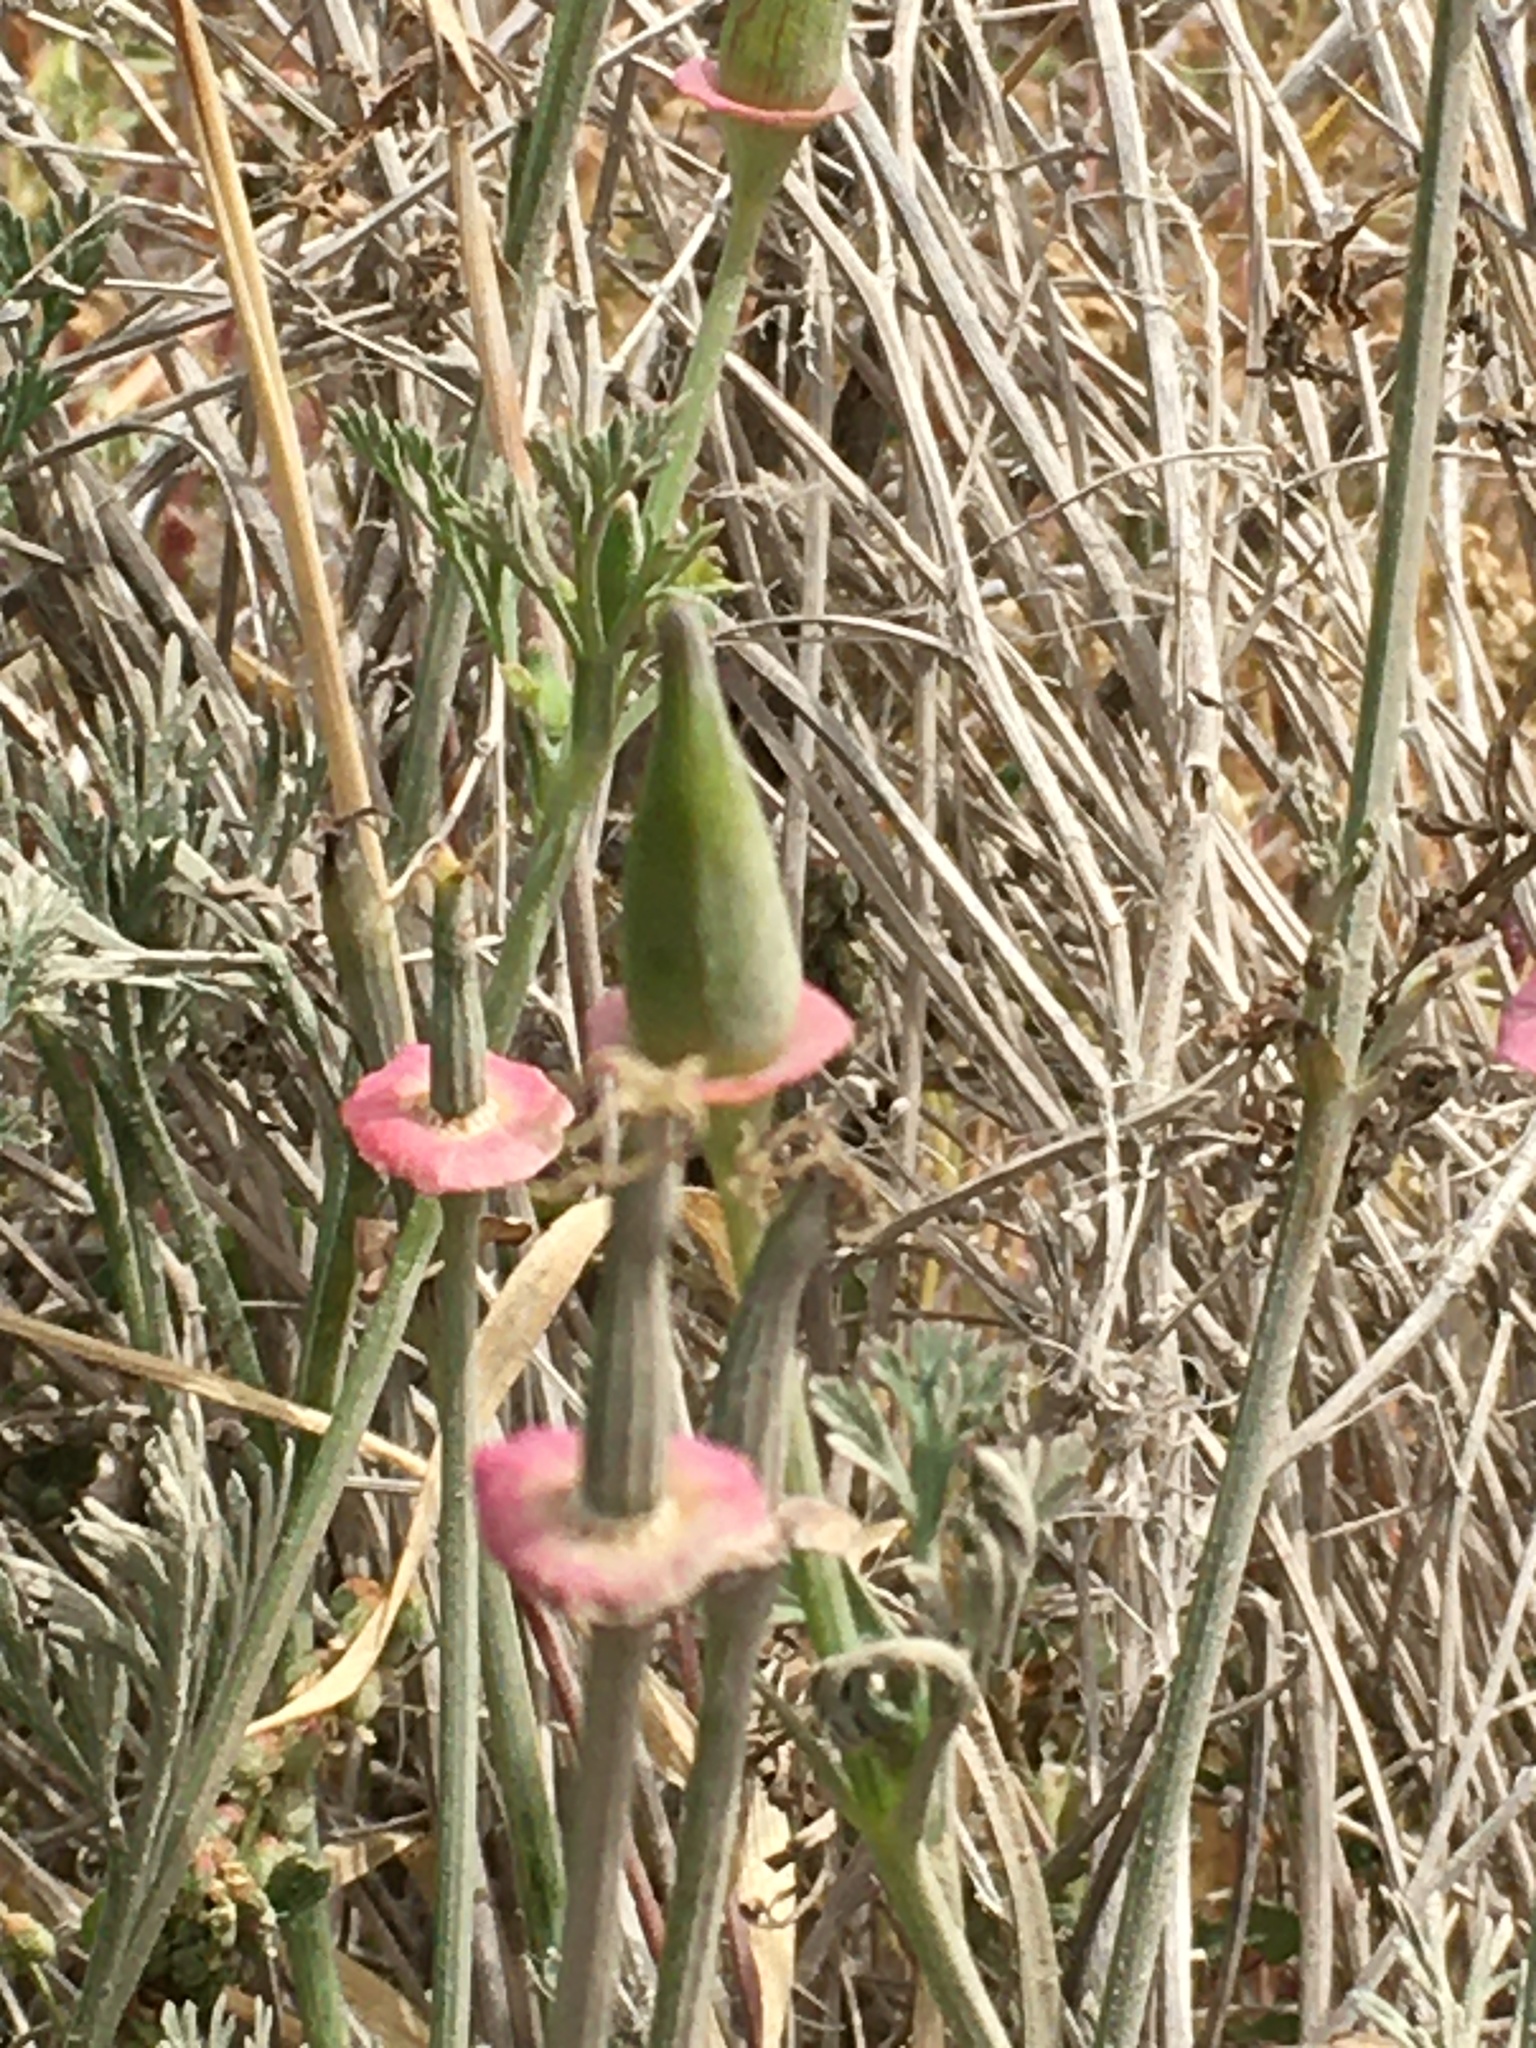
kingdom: Plantae
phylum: Tracheophyta
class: Magnoliopsida
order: Ranunculales
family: Papaveraceae
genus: Eschscholzia
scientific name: Eschscholzia californica
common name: California poppy
